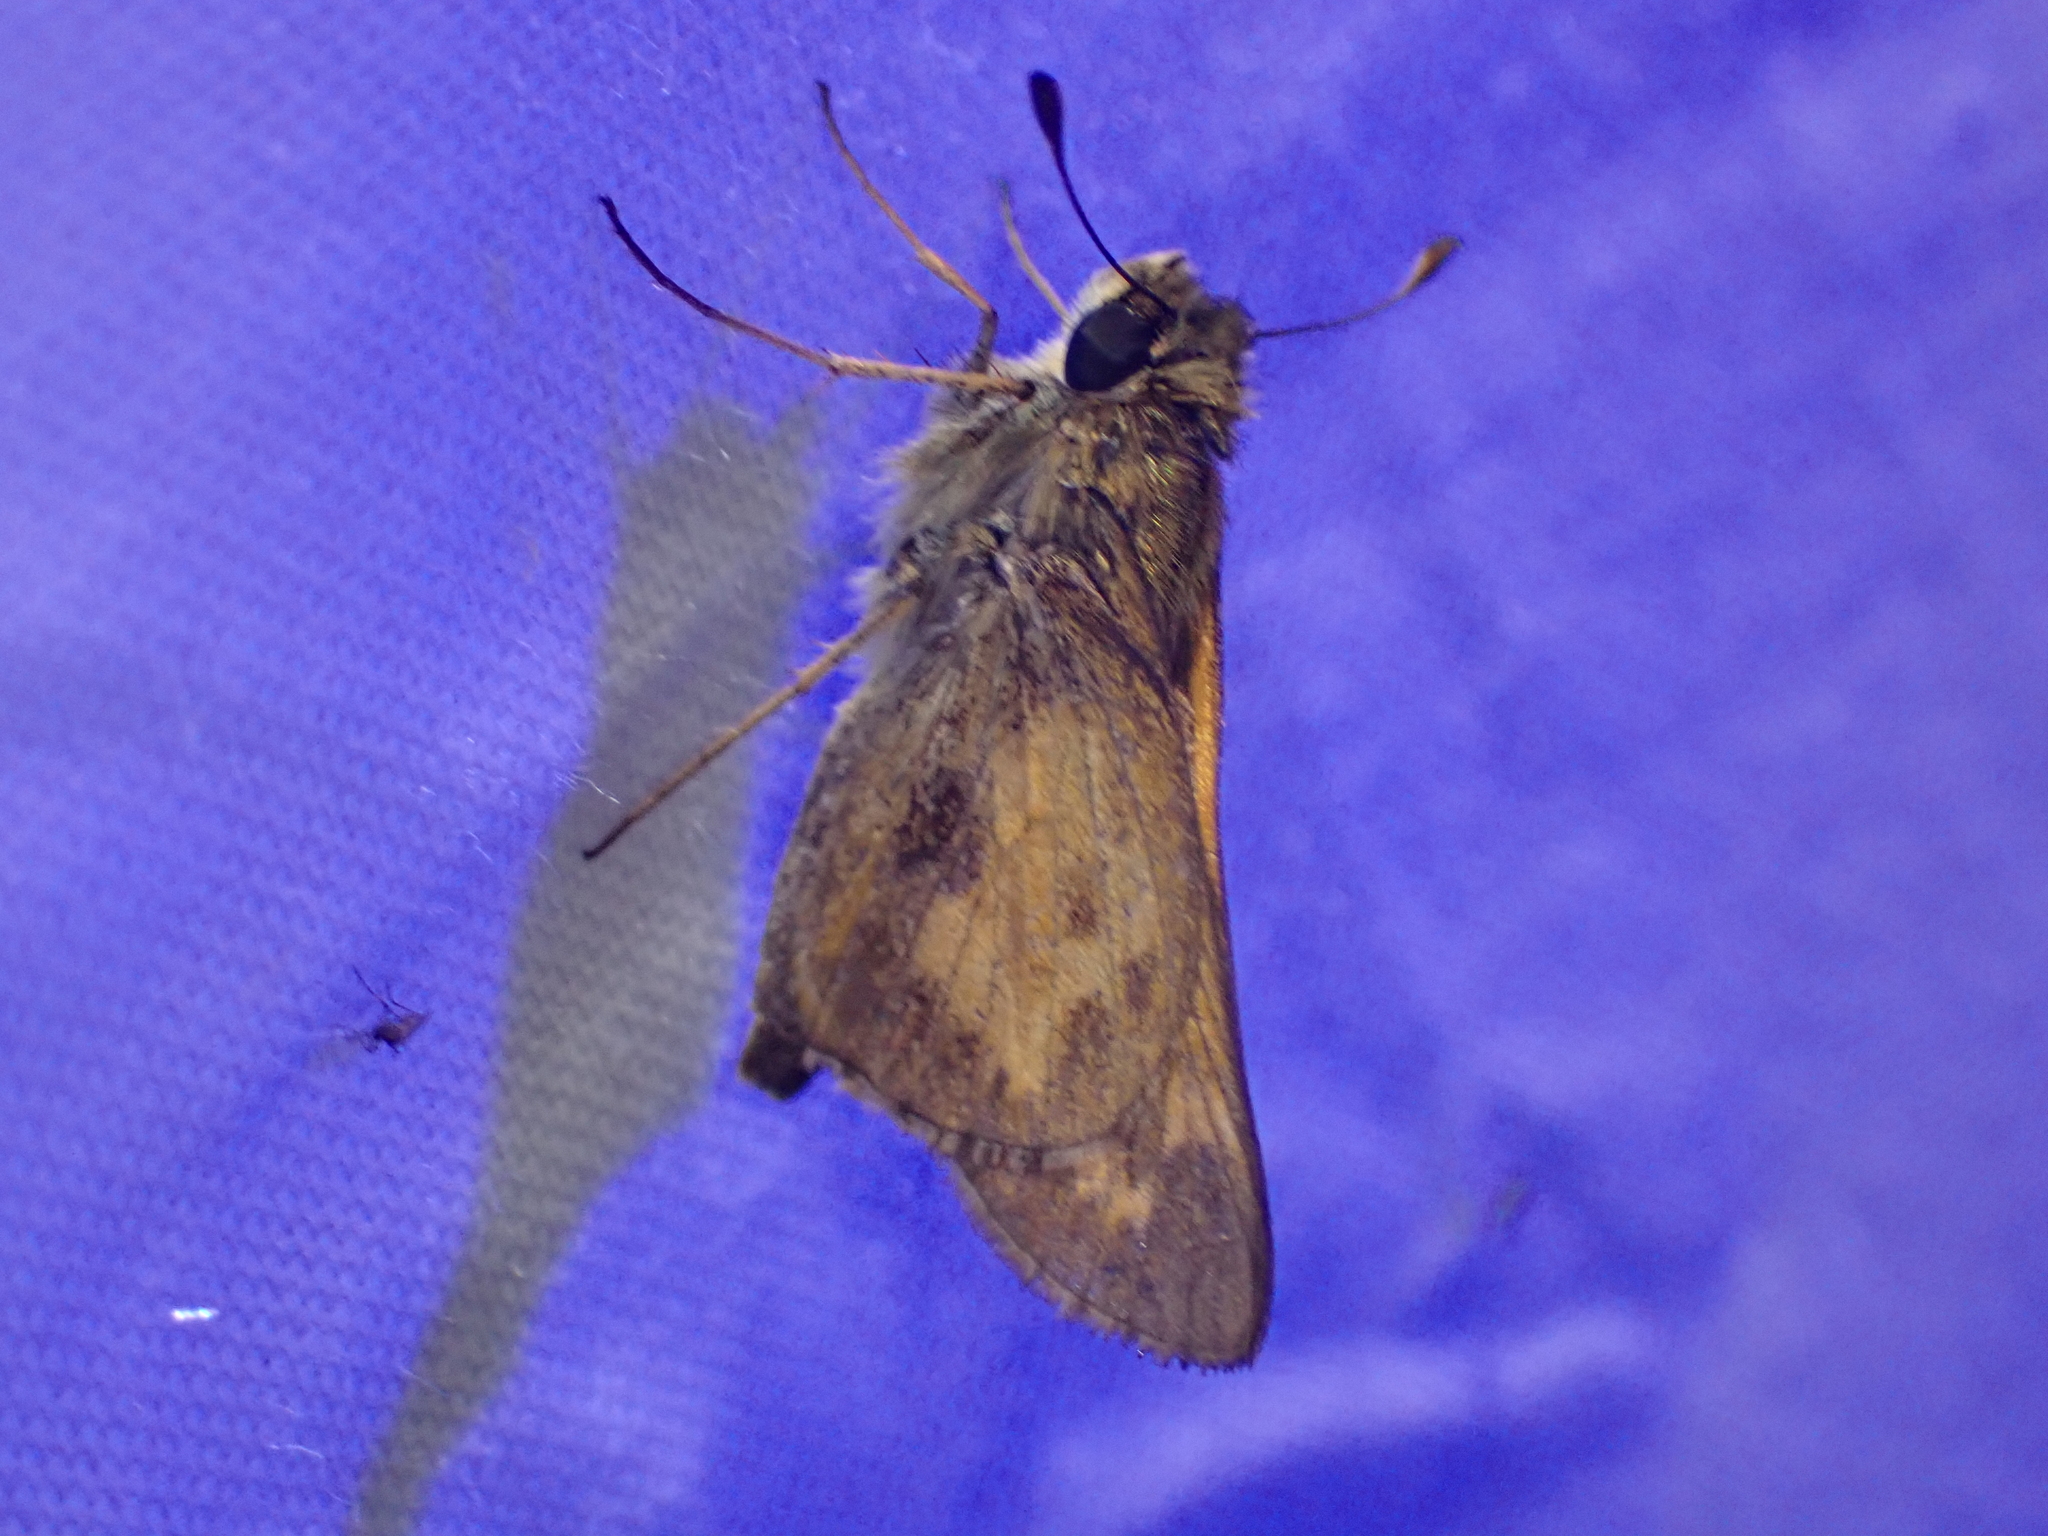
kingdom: Animalia
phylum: Arthropoda
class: Insecta
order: Lepidoptera
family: Hesperiidae
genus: Atalopedes
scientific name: Atalopedes
